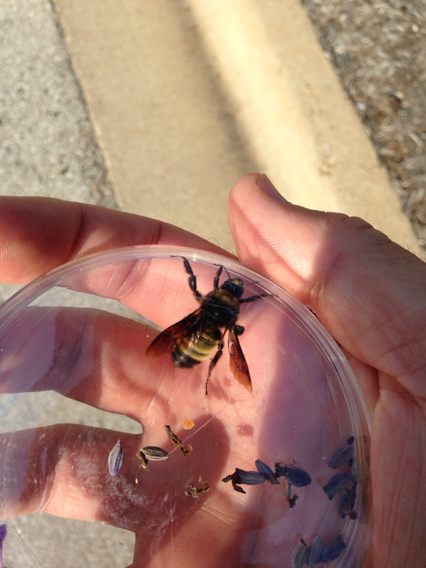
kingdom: Animalia
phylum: Arthropoda
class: Insecta
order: Hymenoptera
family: Apidae
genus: Bombus
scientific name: Bombus pensylvanicus
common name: Bumble bee
